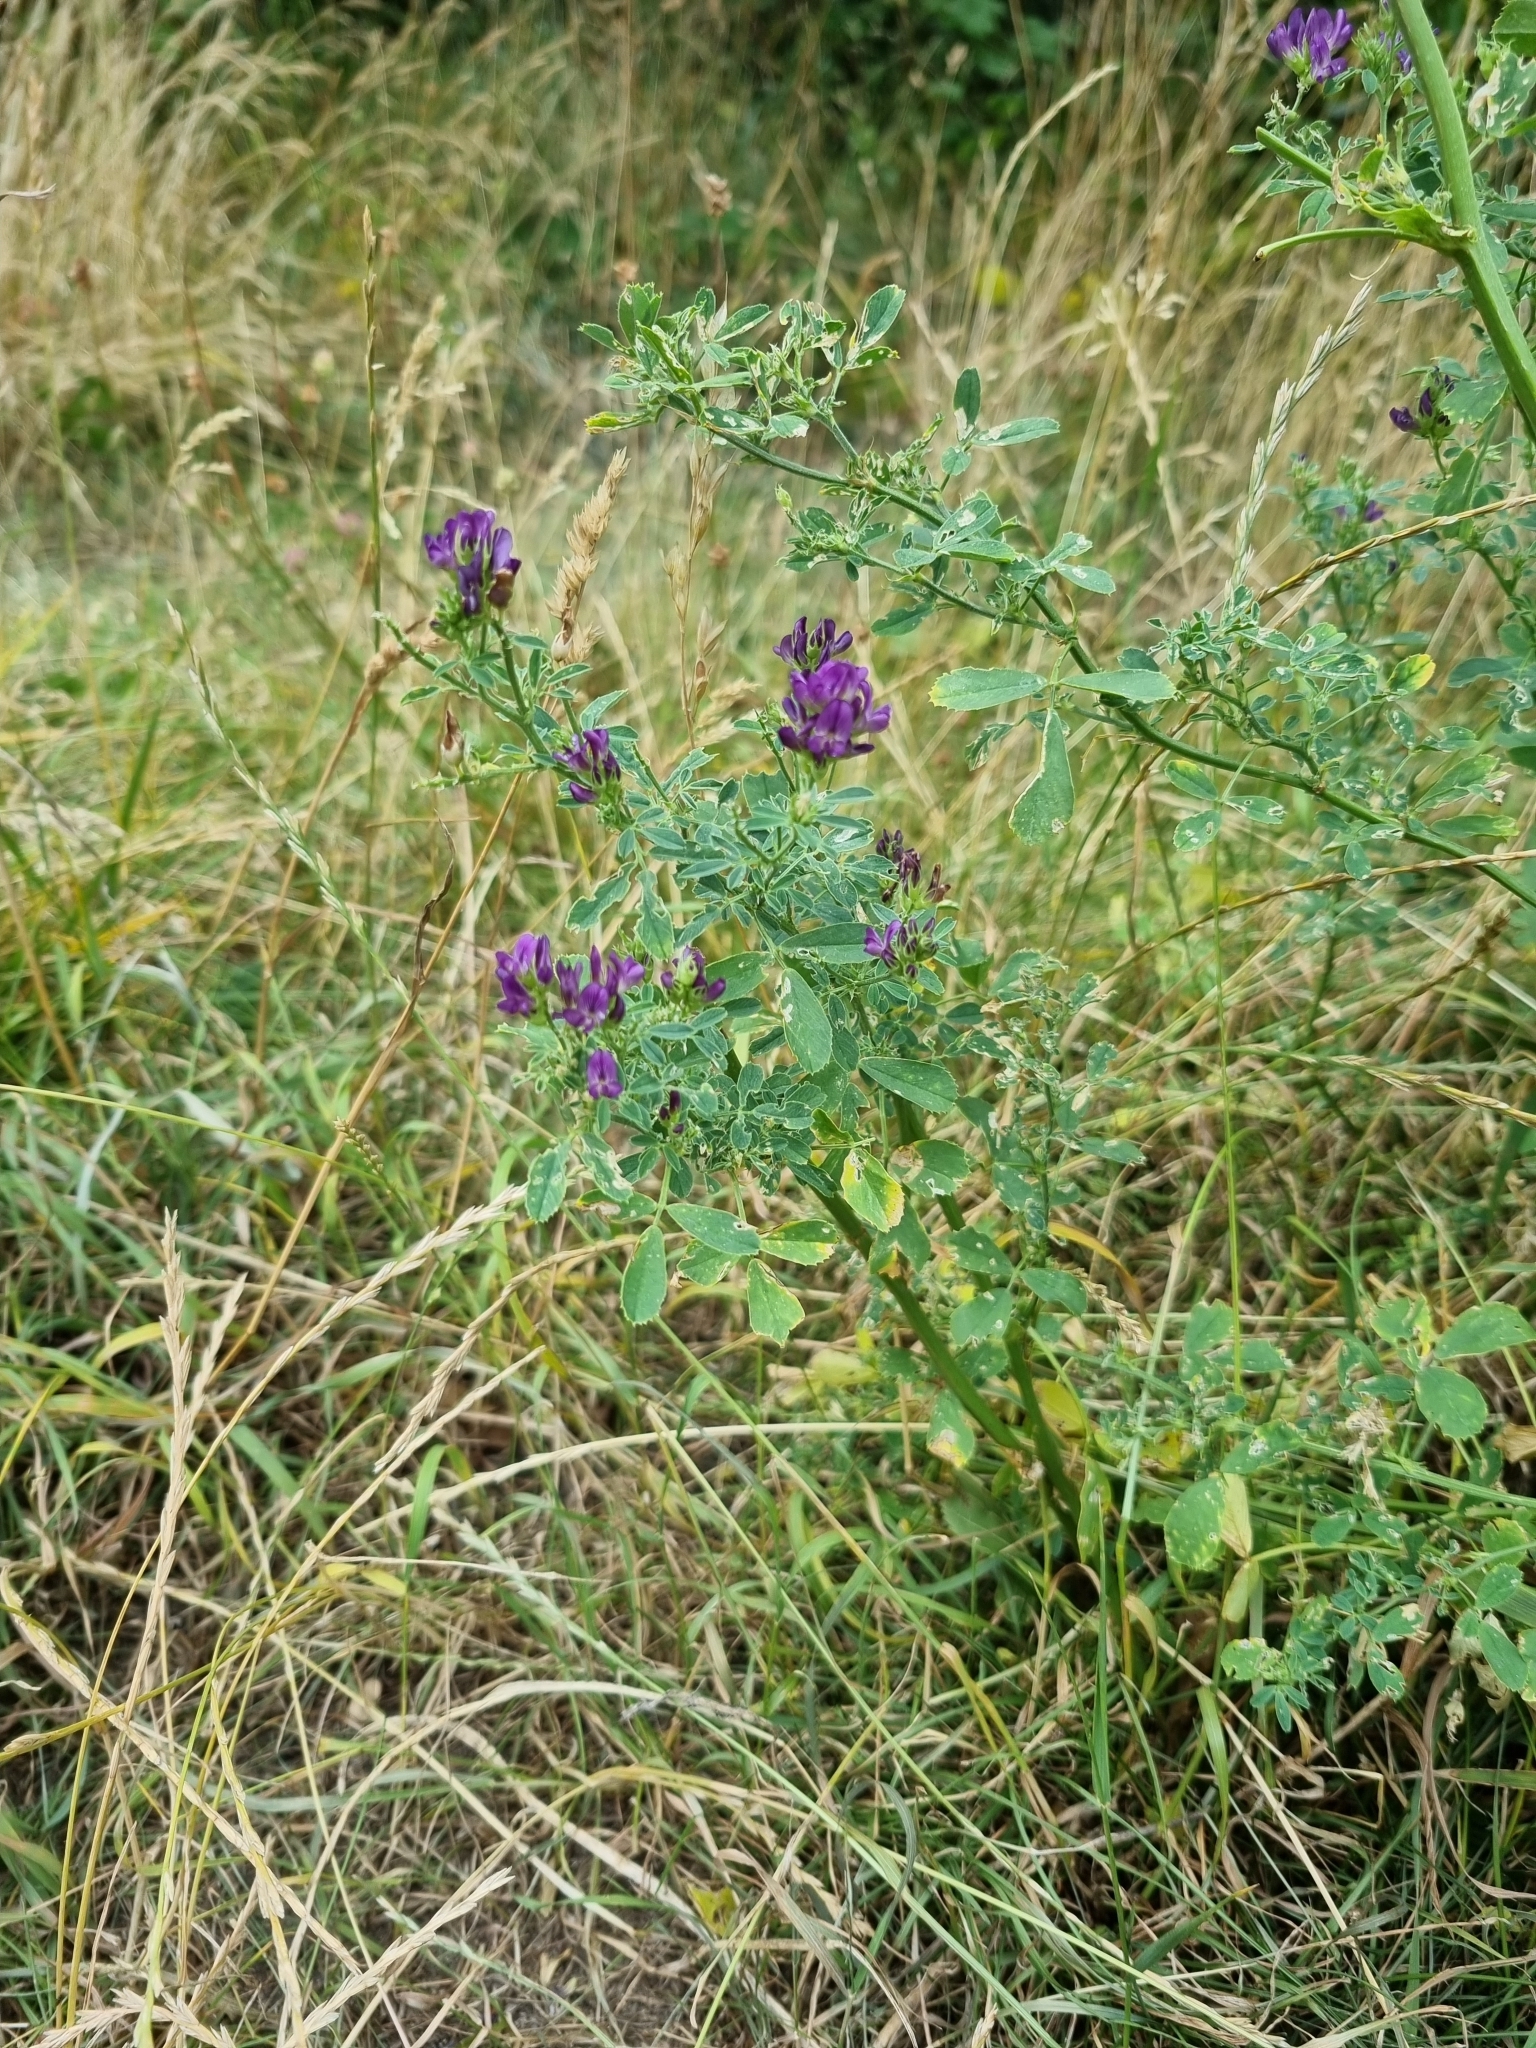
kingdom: Plantae
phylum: Tracheophyta
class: Magnoliopsida
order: Fabales
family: Fabaceae
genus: Medicago
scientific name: Medicago sativa
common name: Alfalfa
